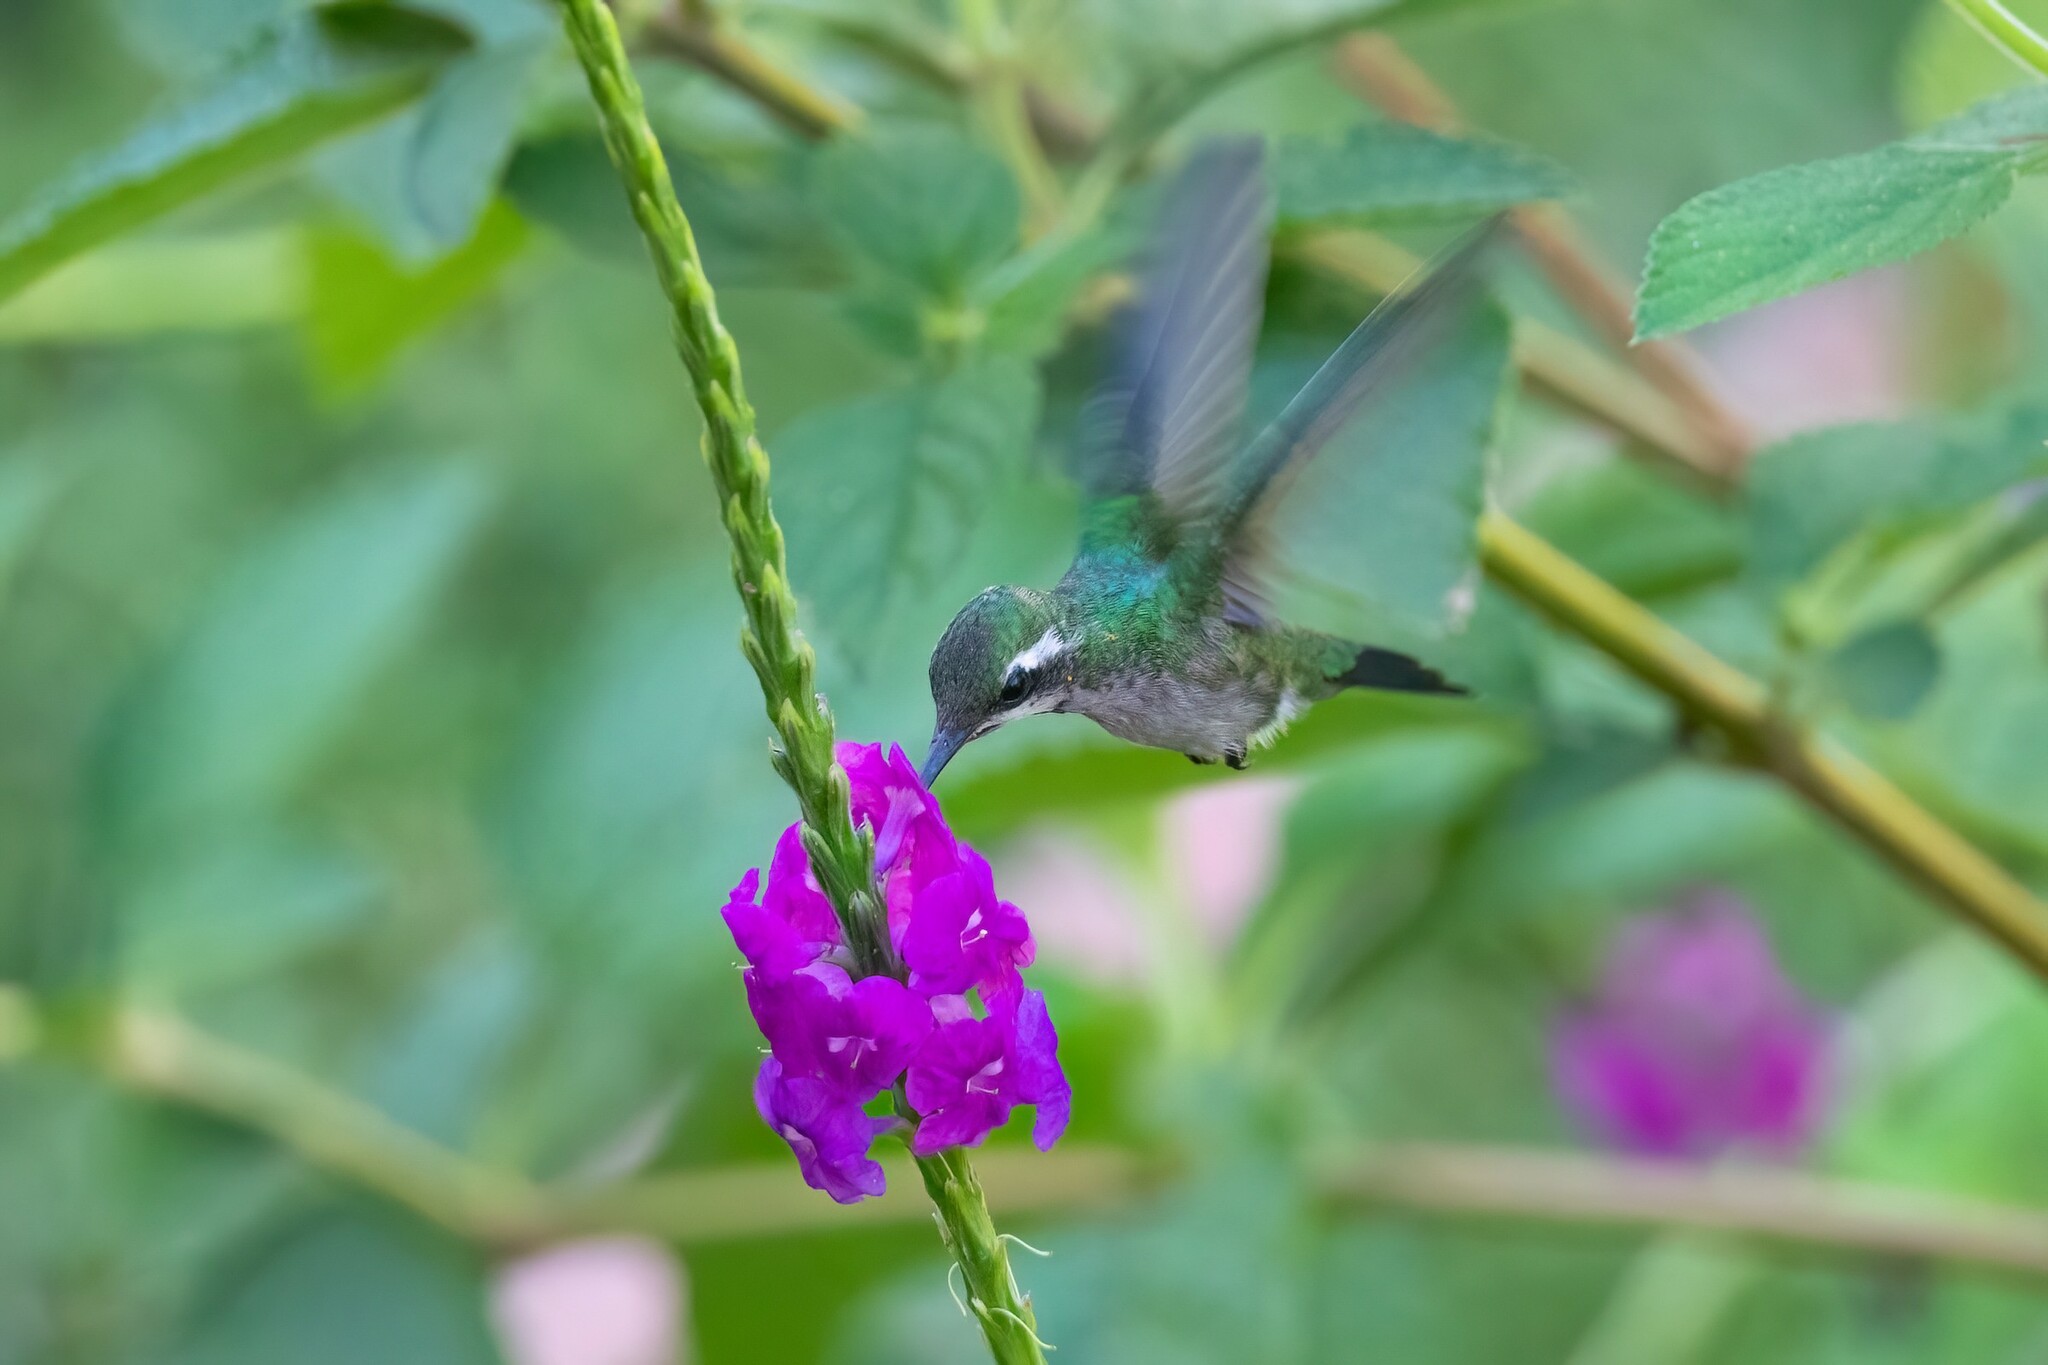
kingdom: Animalia
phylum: Chordata
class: Aves
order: Apodiformes
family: Trochilidae
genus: Cynanthus
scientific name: Cynanthus canivetii
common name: Canivet's emerald
